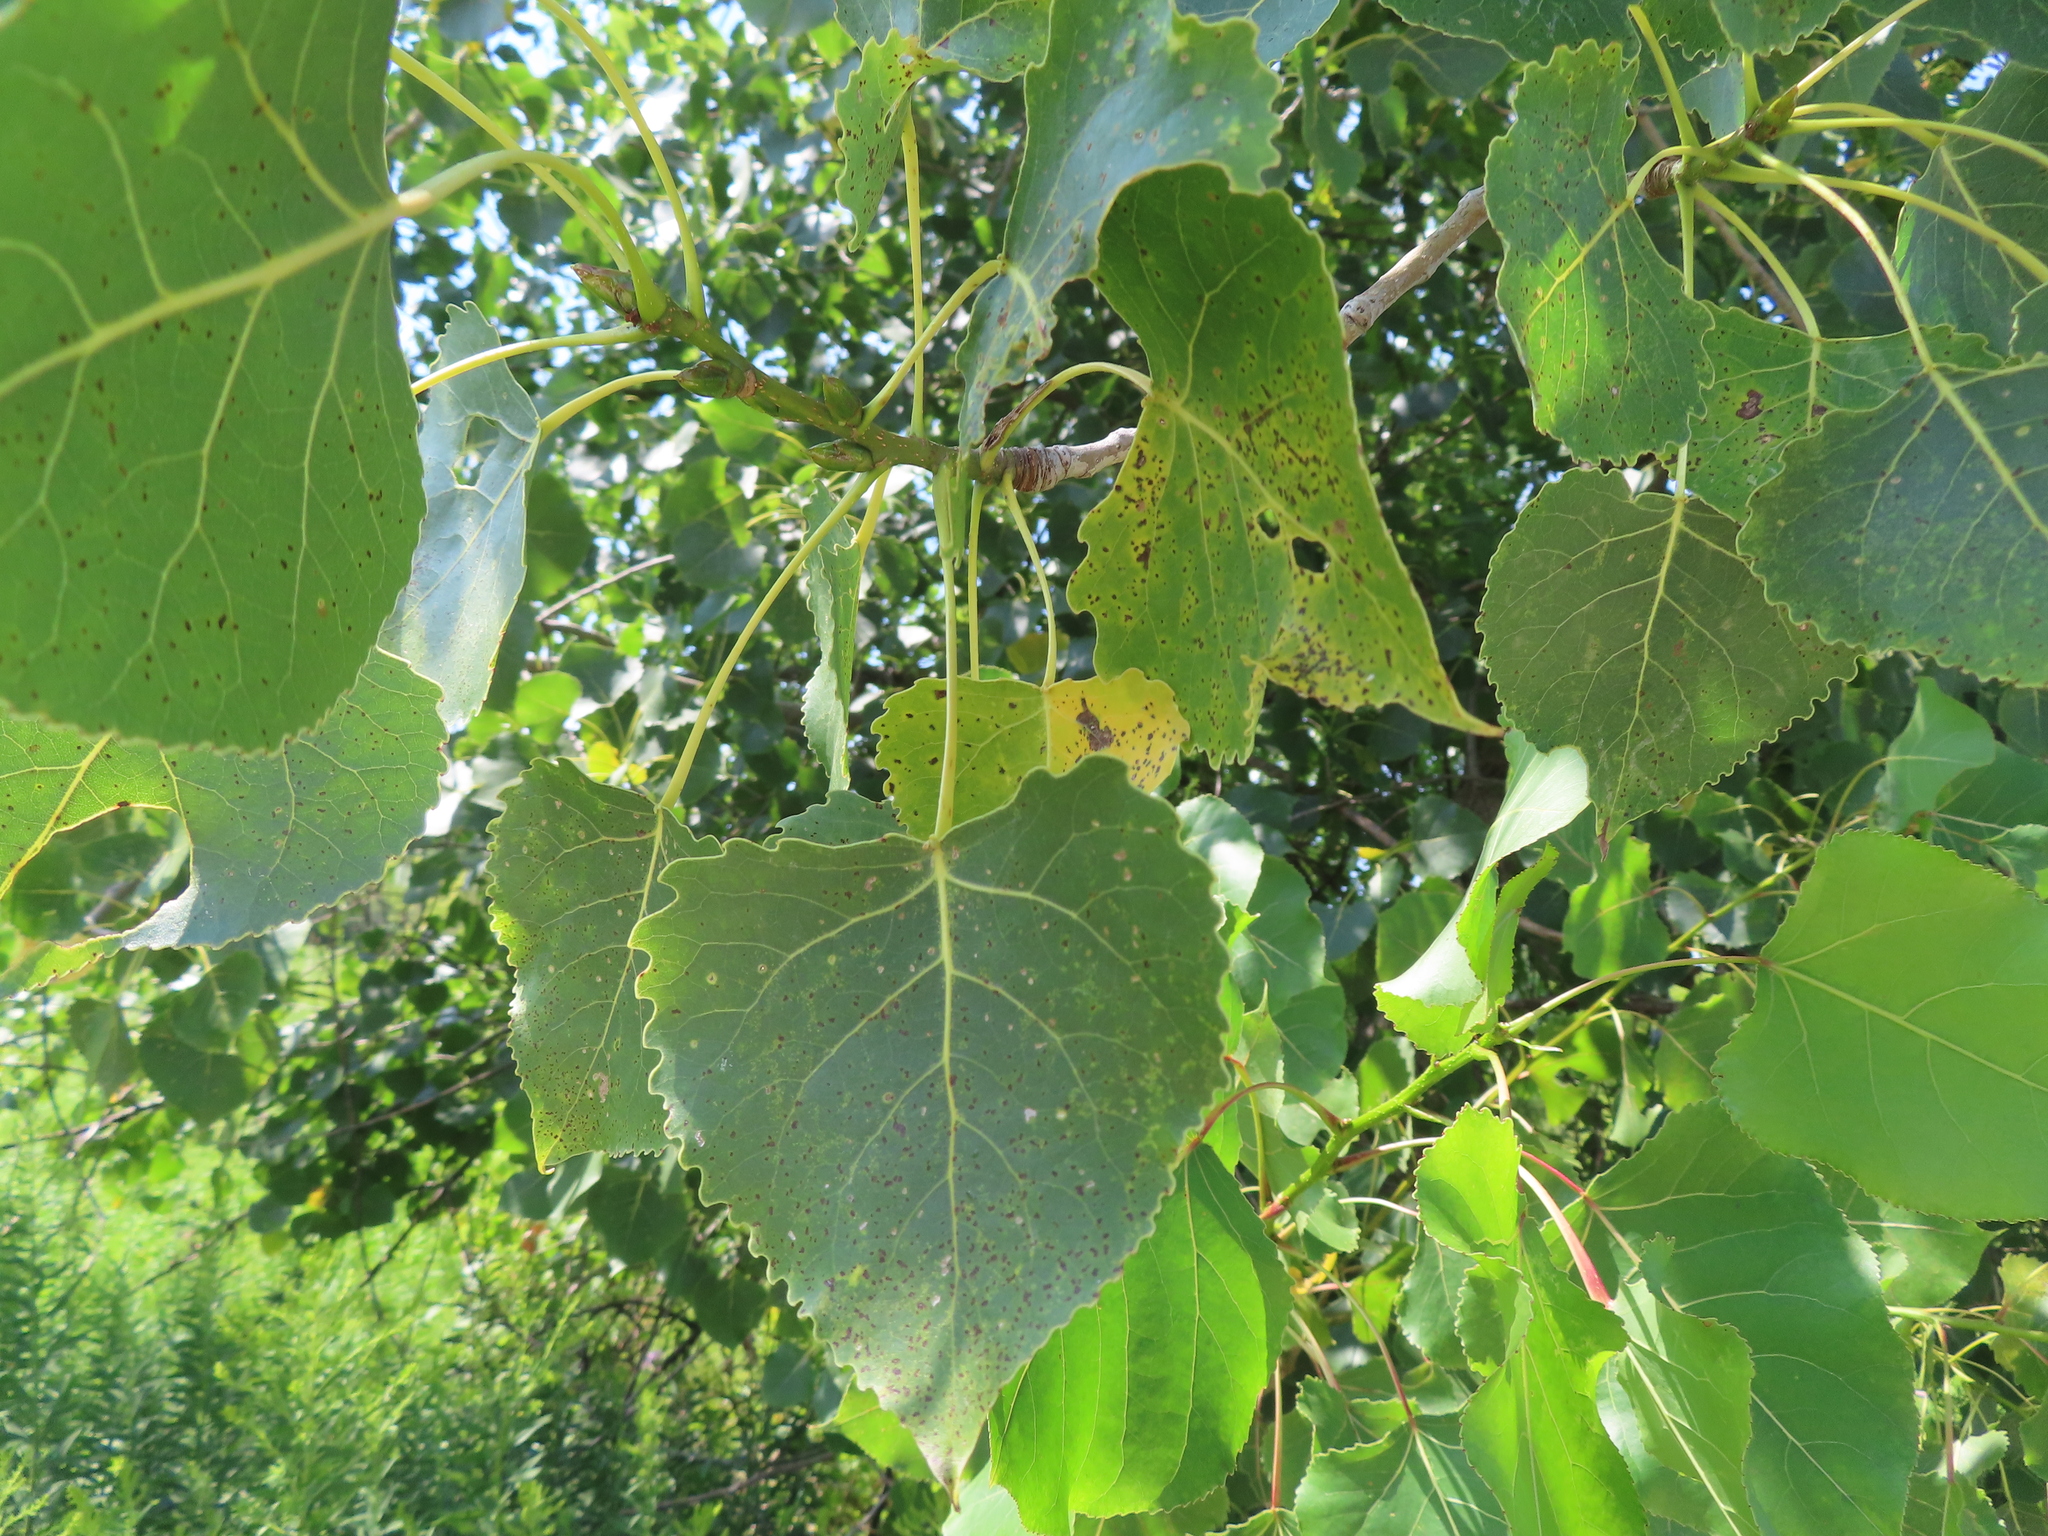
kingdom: Plantae
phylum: Tracheophyta
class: Magnoliopsida
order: Malpighiales
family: Salicaceae
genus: Populus
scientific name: Populus deltoides
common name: Eastern cottonwood
